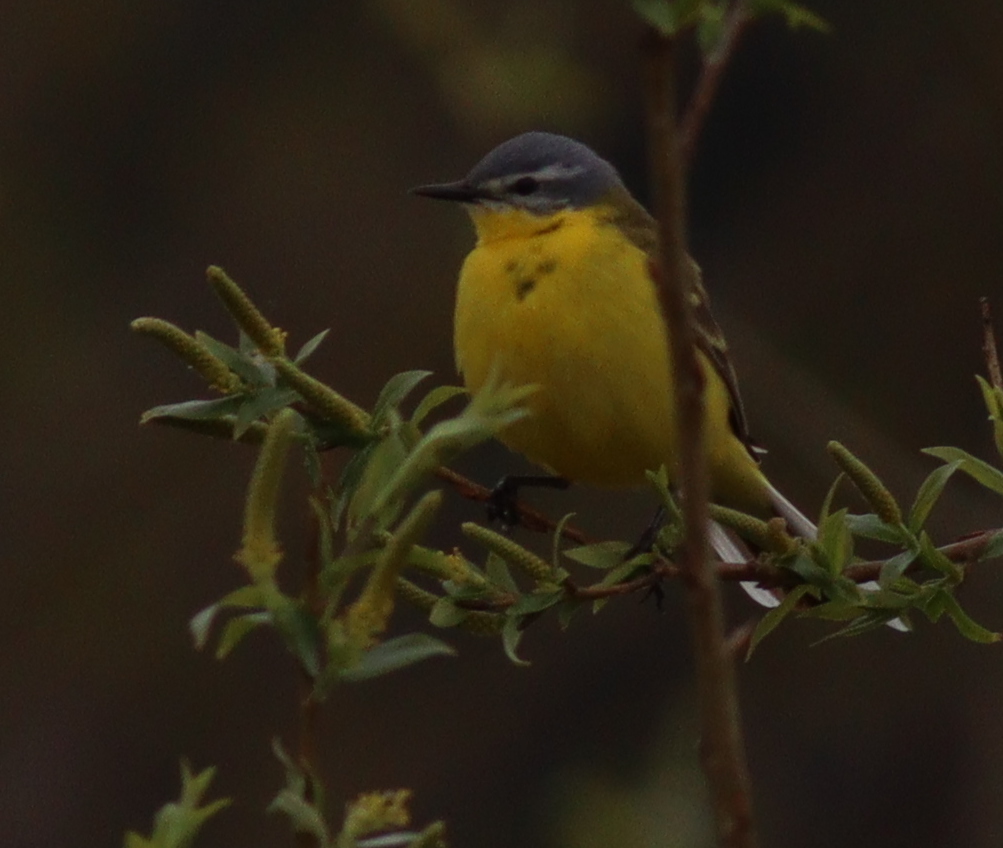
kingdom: Animalia
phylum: Chordata
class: Aves
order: Passeriformes
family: Motacillidae
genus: Motacilla
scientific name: Motacilla flava
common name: Western yellow wagtail
